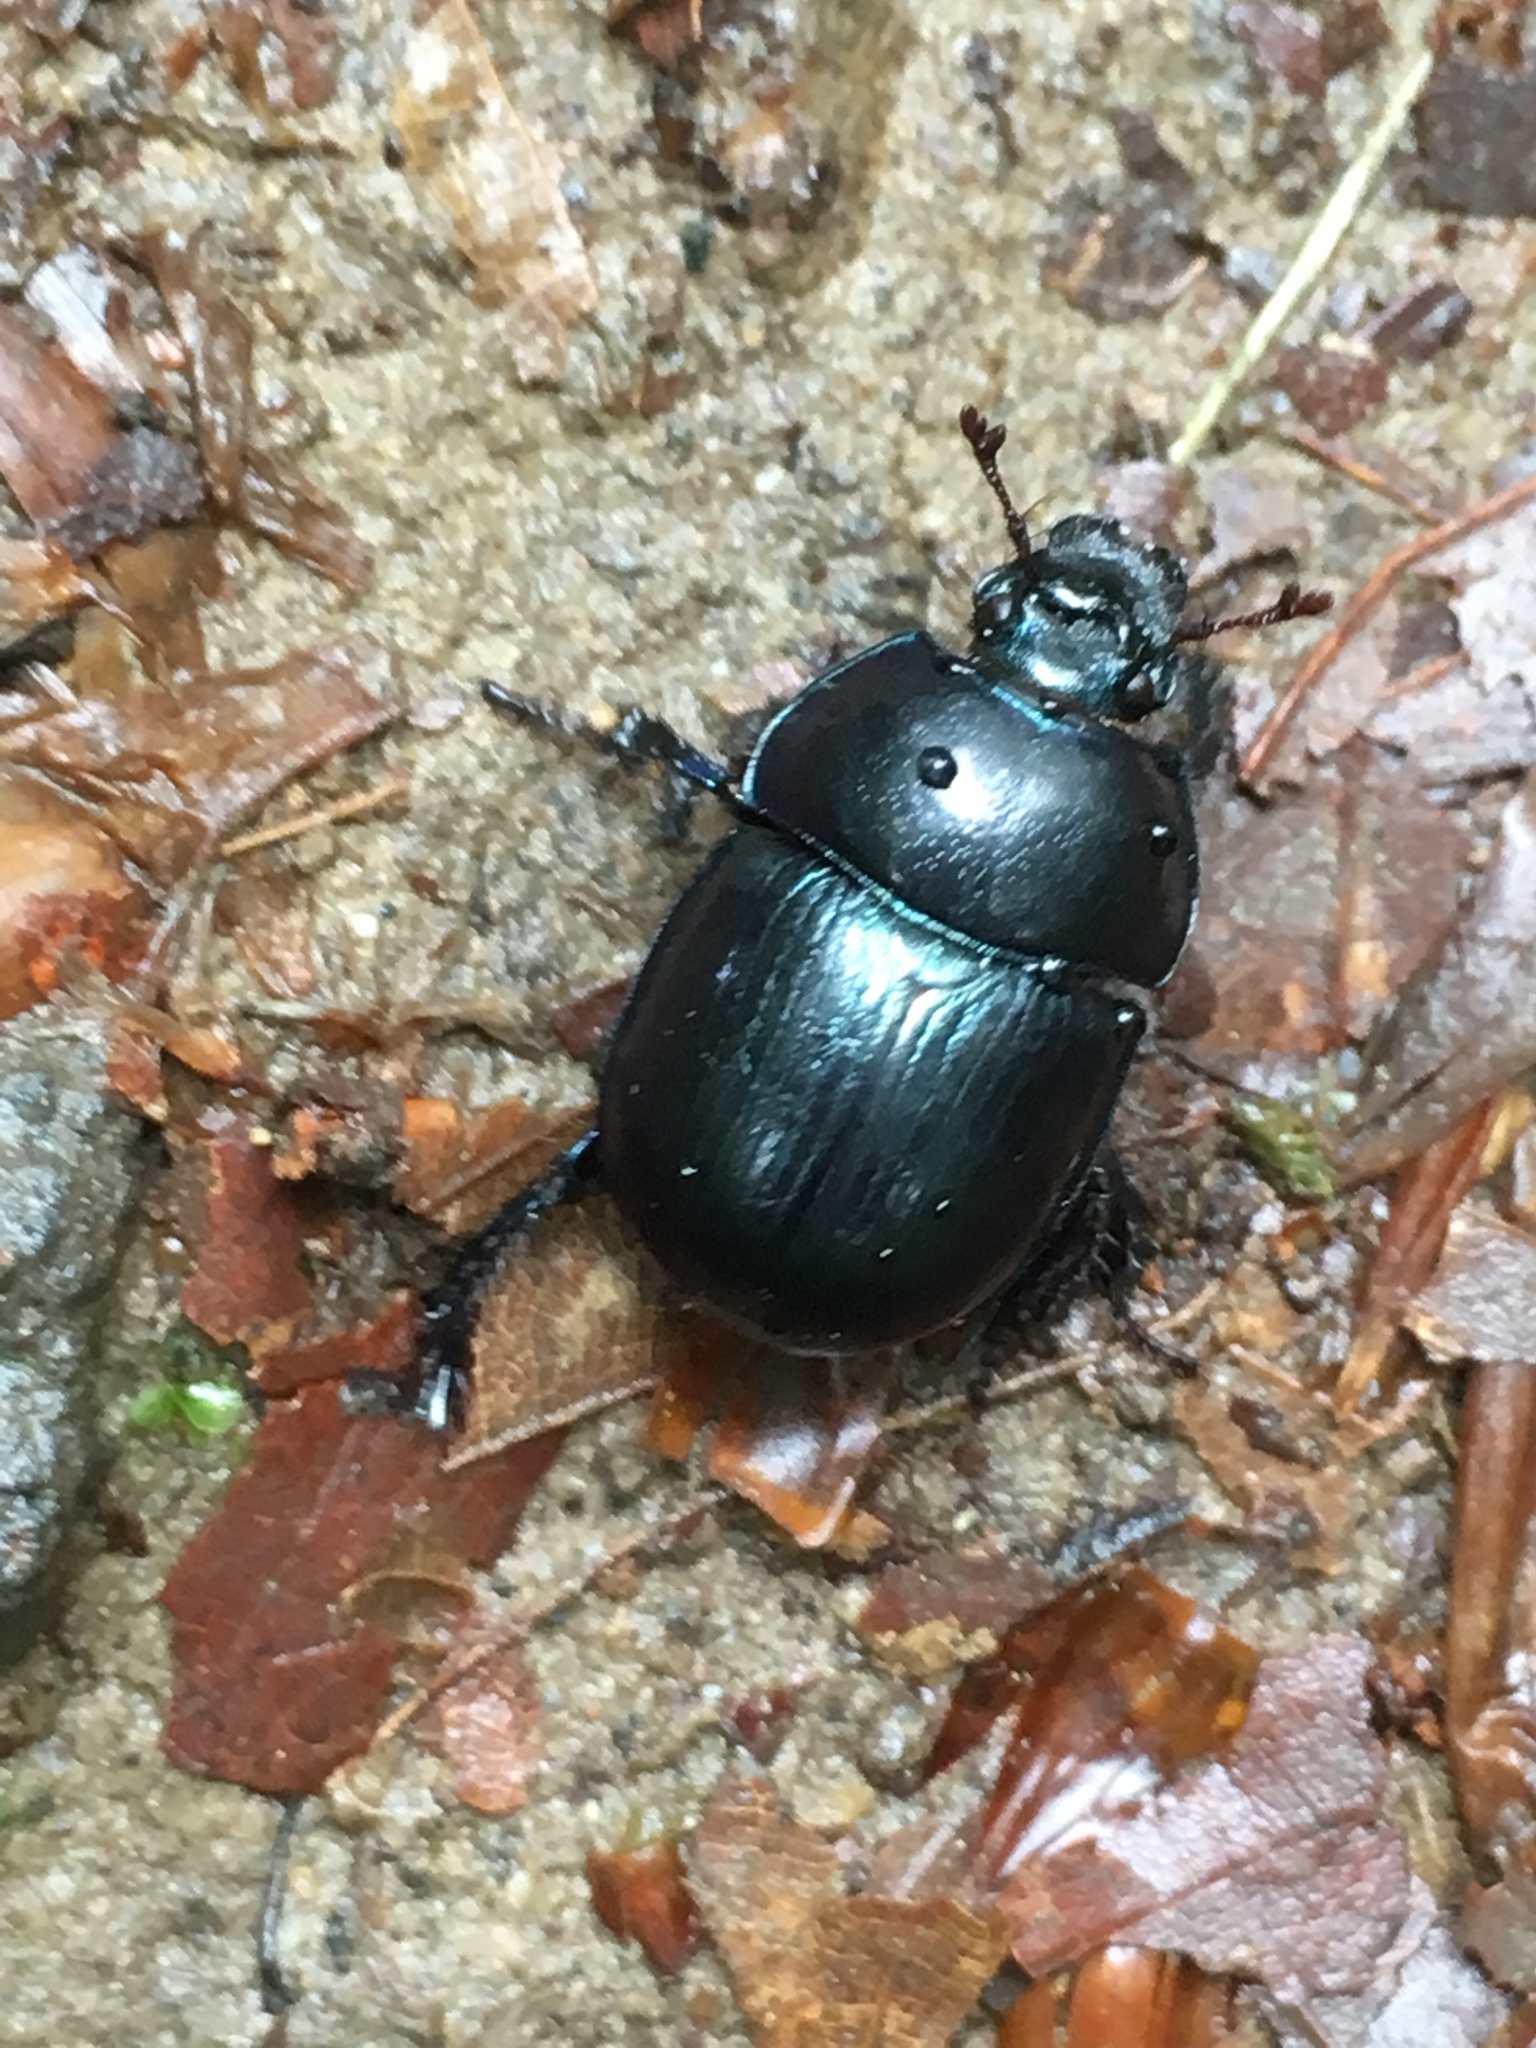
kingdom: Animalia
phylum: Arthropoda
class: Insecta
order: Coleoptera
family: Geotrupidae
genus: Anoplotrupes
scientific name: Anoplotrupes stercorosus
